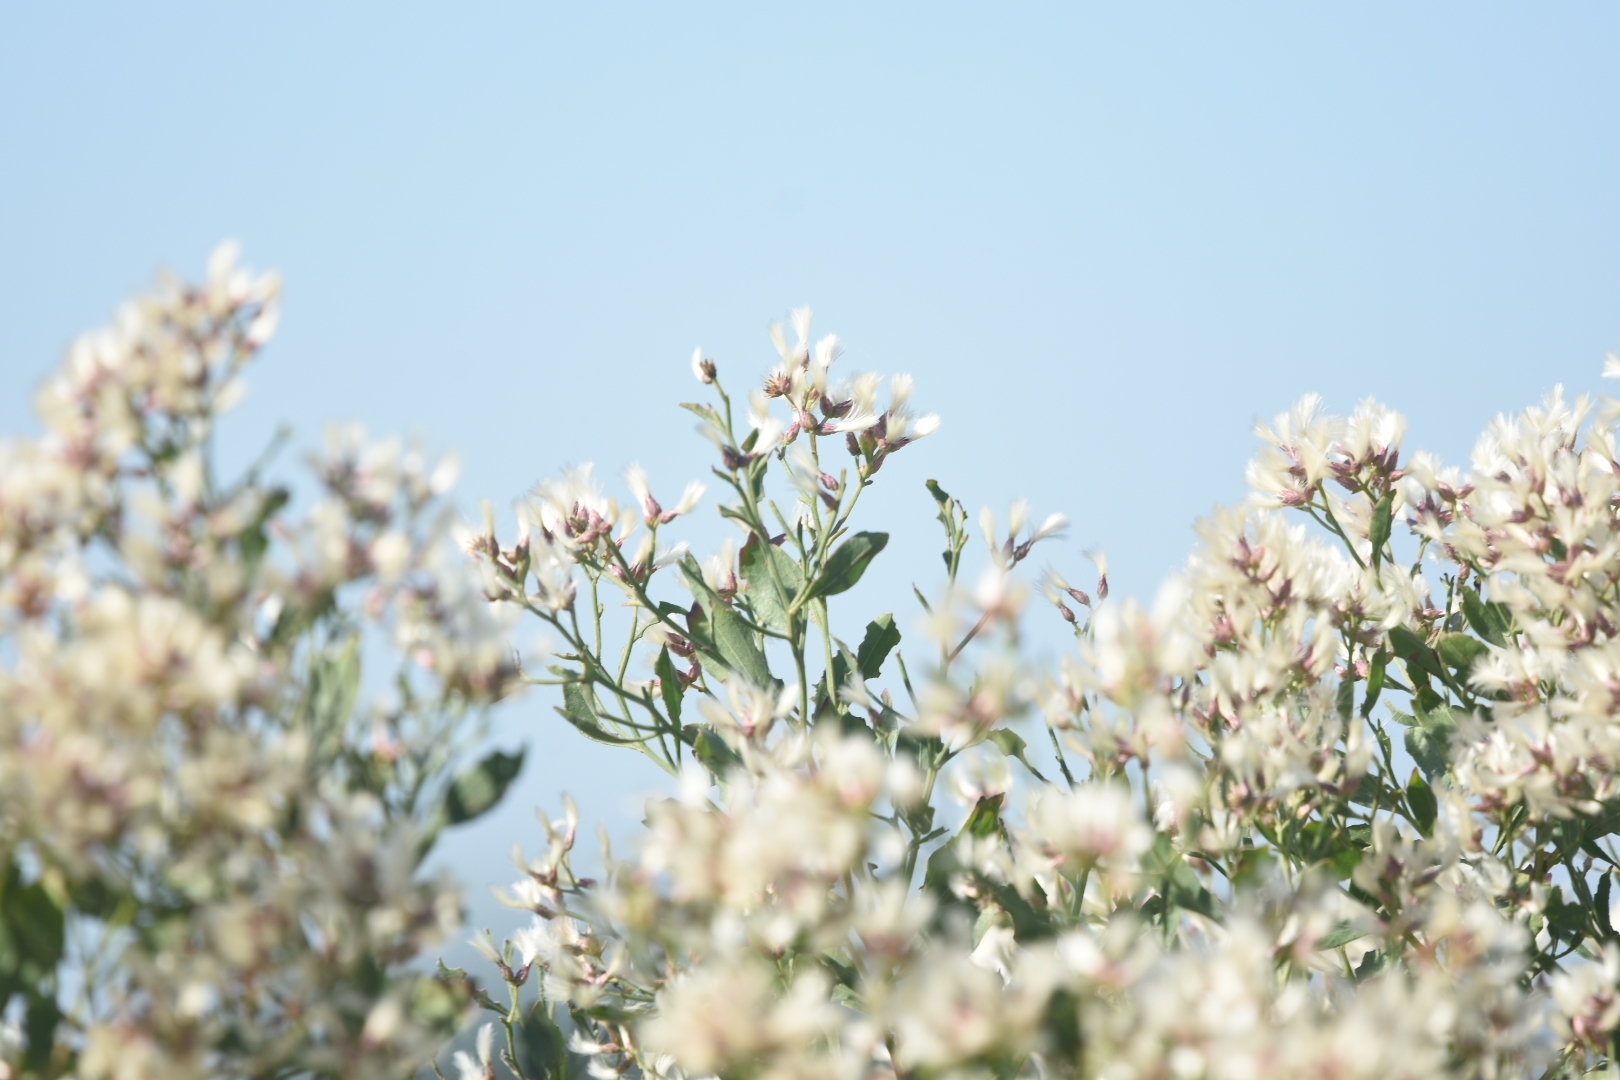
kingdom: Plantae
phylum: Tracheophyta
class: Magnoliopsida
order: Asterales
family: Asteraceae
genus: Baccharis
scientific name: Baccharis halimifolia
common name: Eastern baccharis
